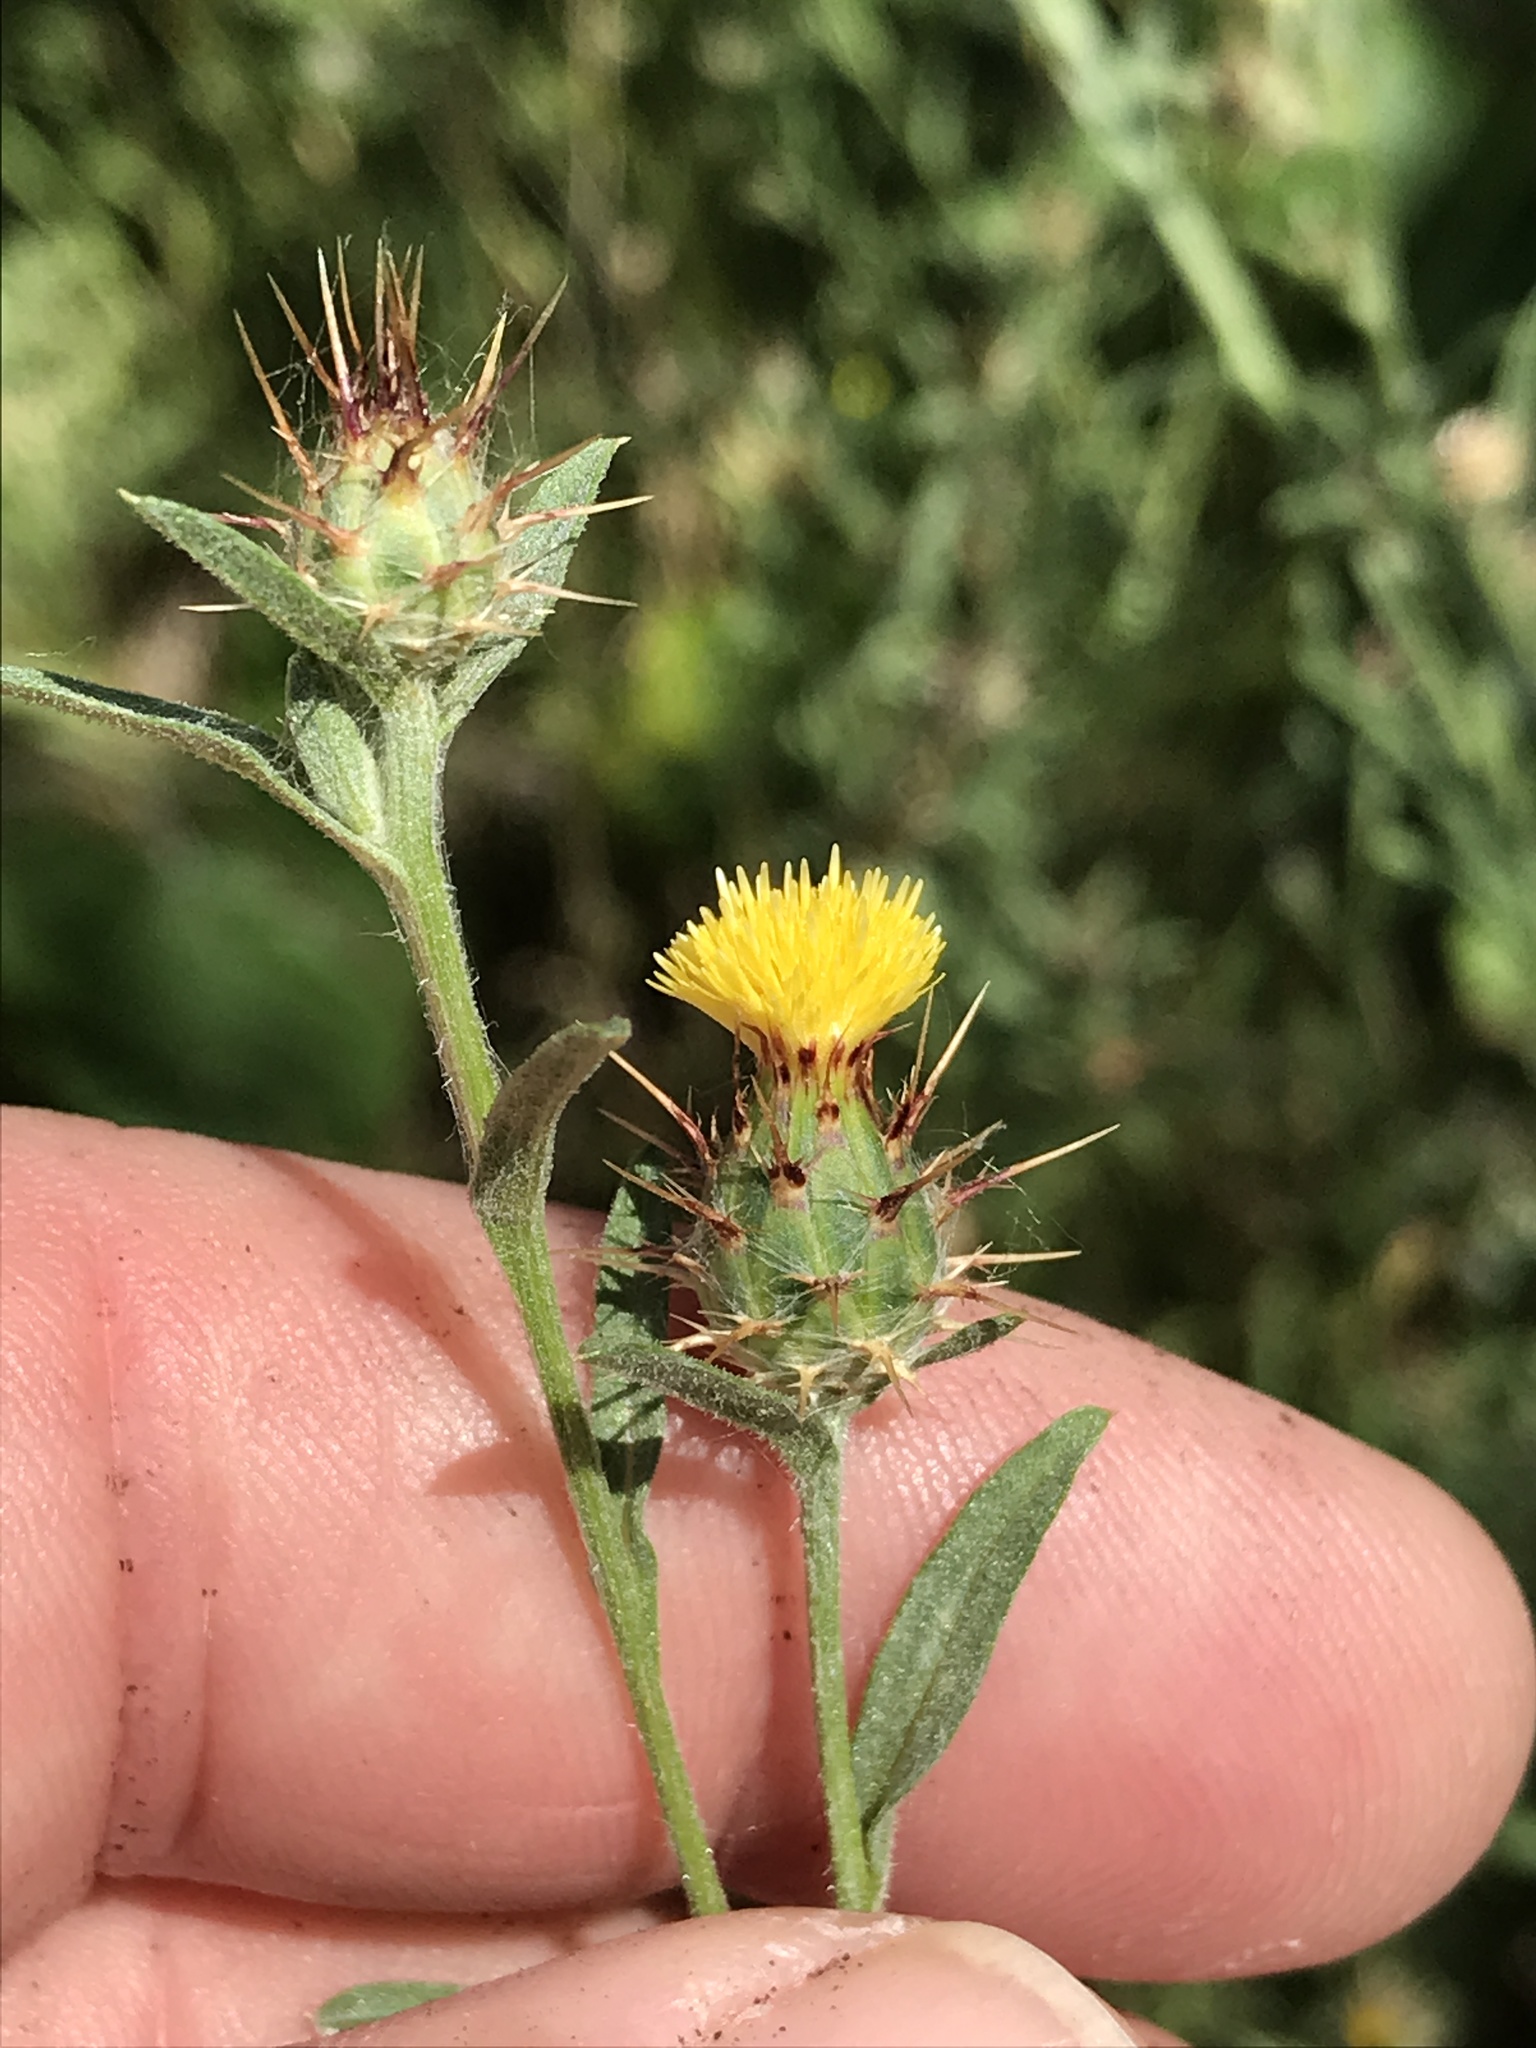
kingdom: Plantae
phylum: Tracheophyta
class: Magnoliopsida
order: Asterales
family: Asteraceae
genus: Centaurea
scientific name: Centaurea melitensis
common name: Maltese star-thistle
